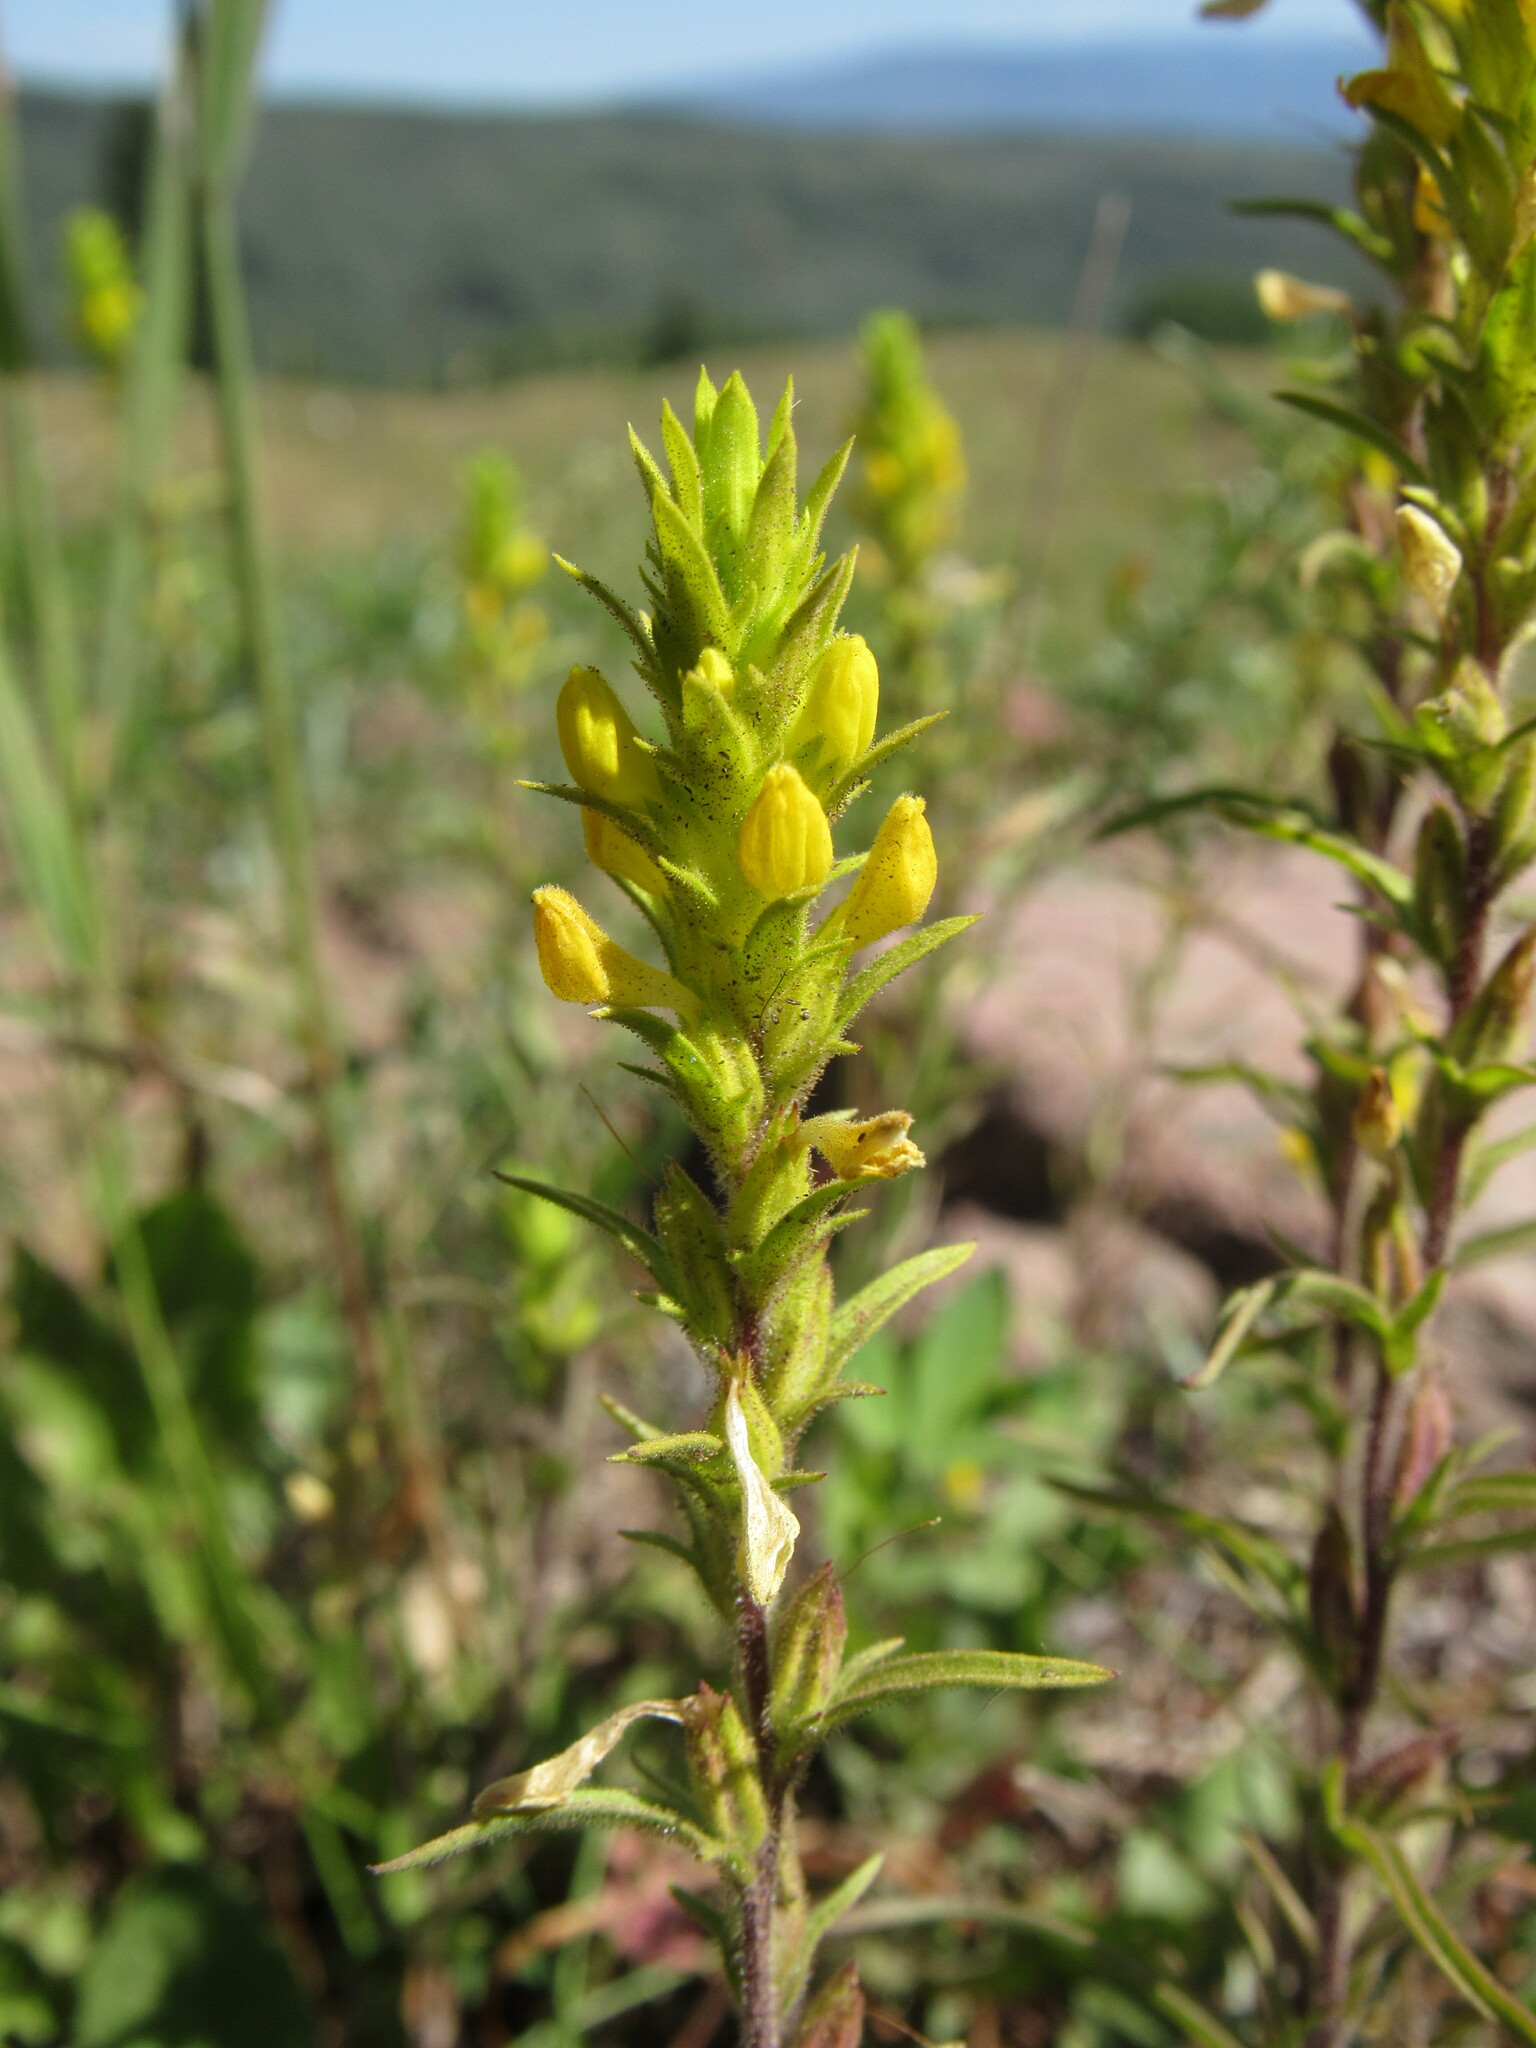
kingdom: Plantae
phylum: Tracheophyta
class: Magnoliopsida
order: Lamiales
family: Orobanchaceae
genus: Orthocarpus
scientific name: Orthocarpus luteus
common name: Golden-tongue owl's-clover
